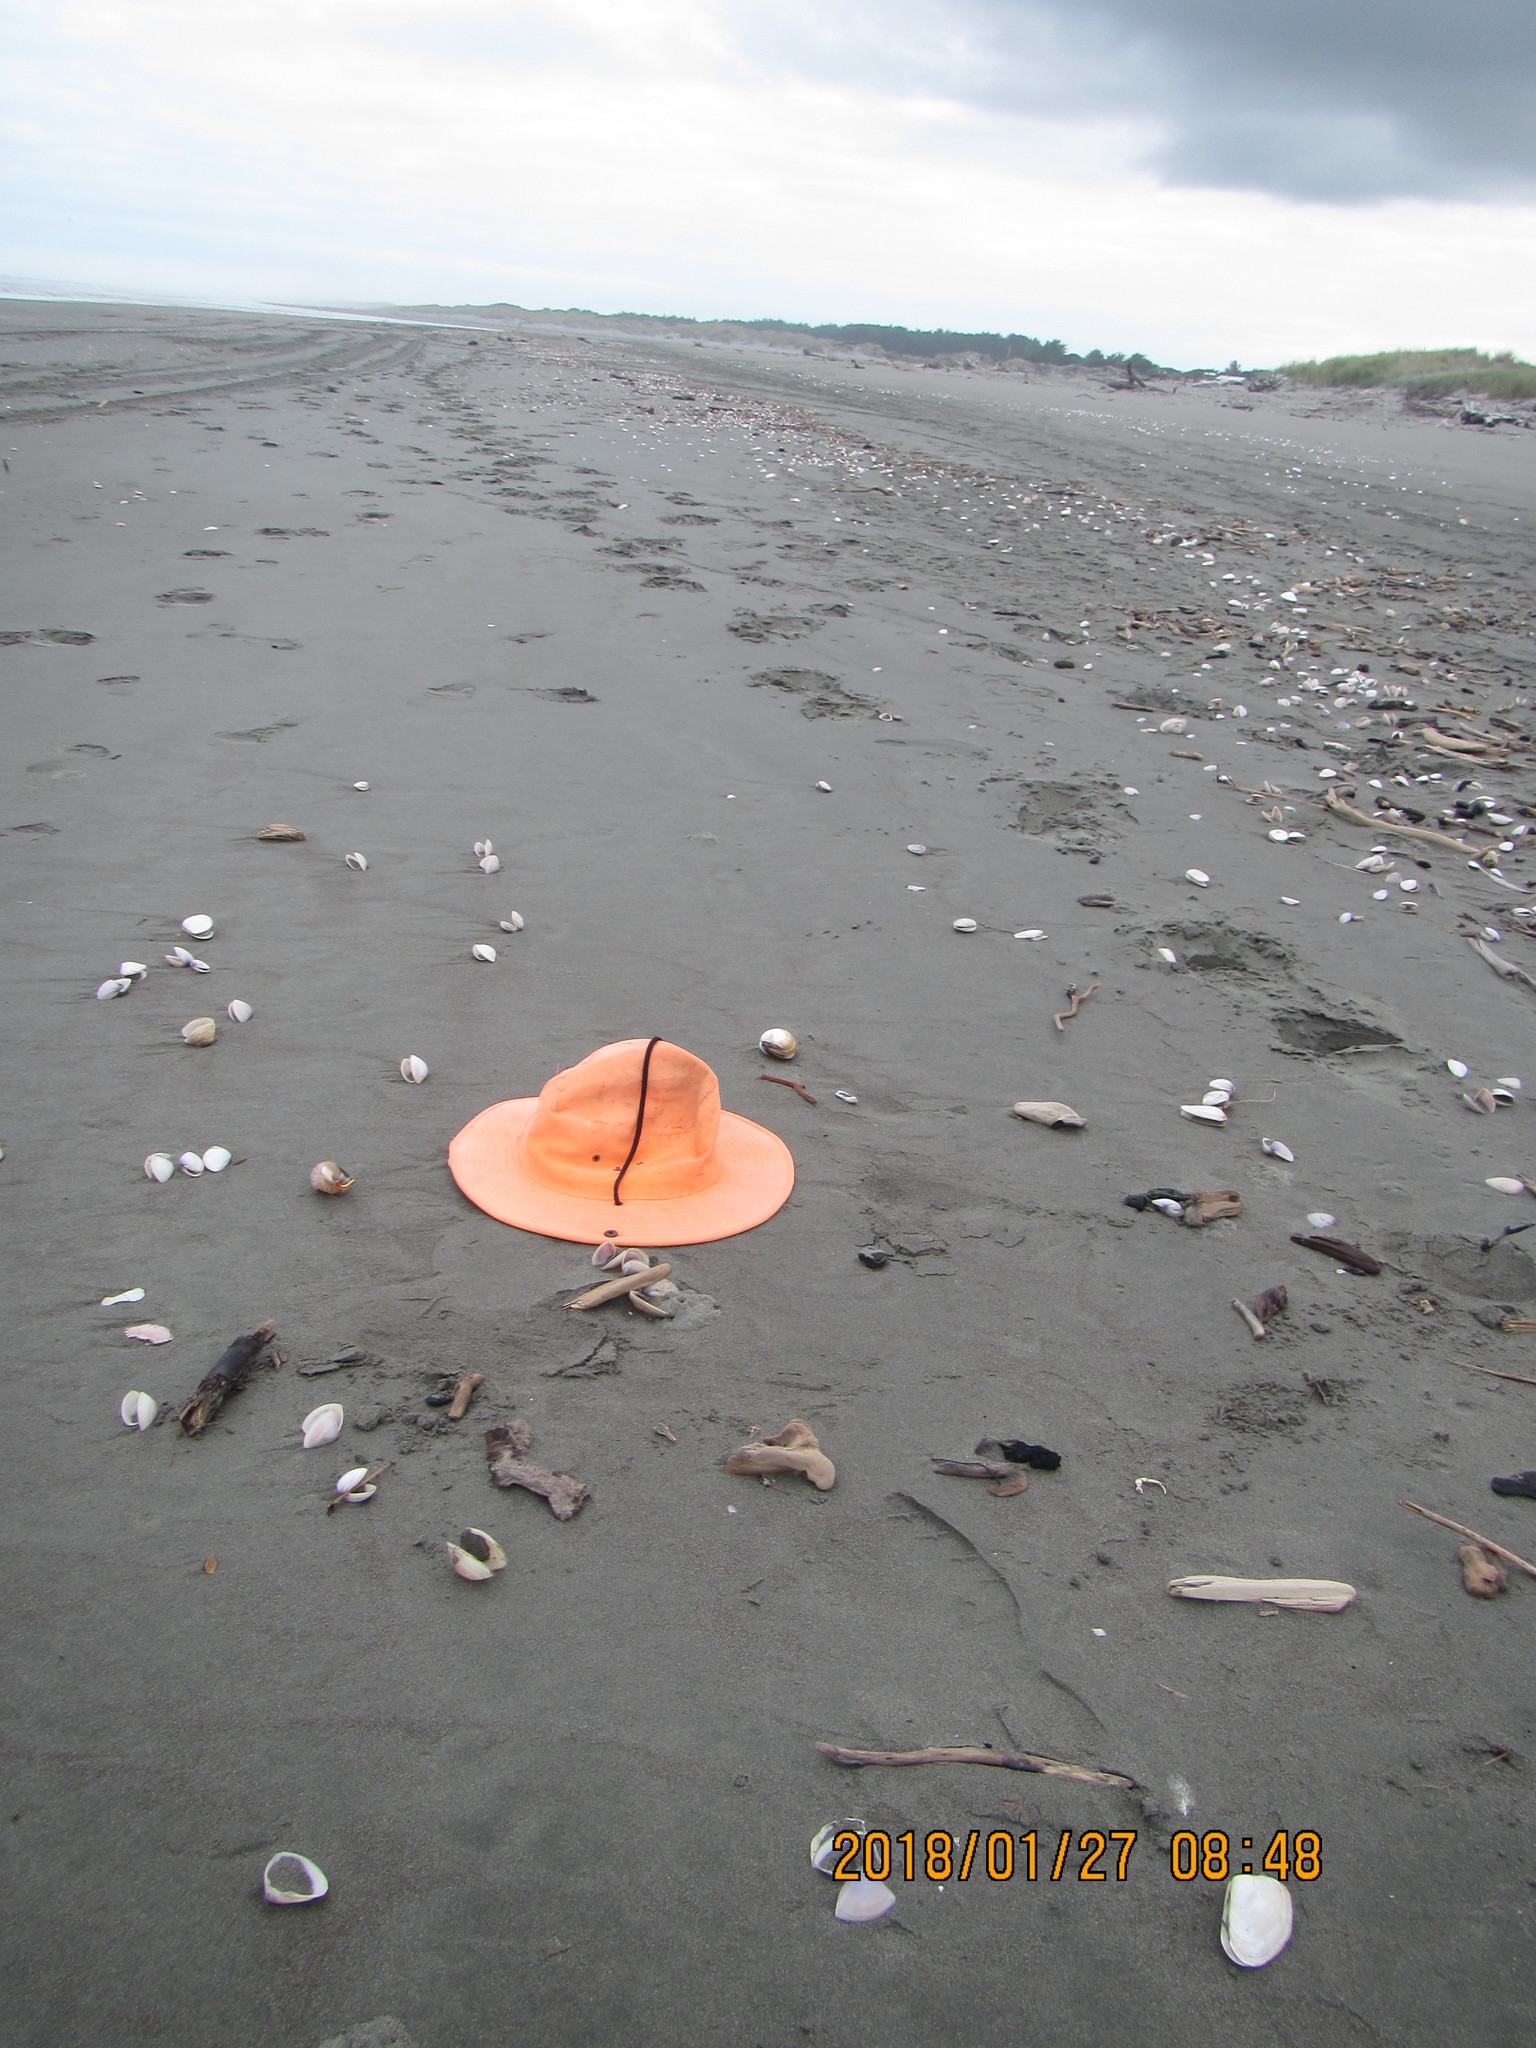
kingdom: Animalia
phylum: Mollusca
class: Gastropoda
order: Littorinimorpha
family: Struthiolariidae
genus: Struthiolaria
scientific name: Struthiolaria papulosa
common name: Large ostrich foot
